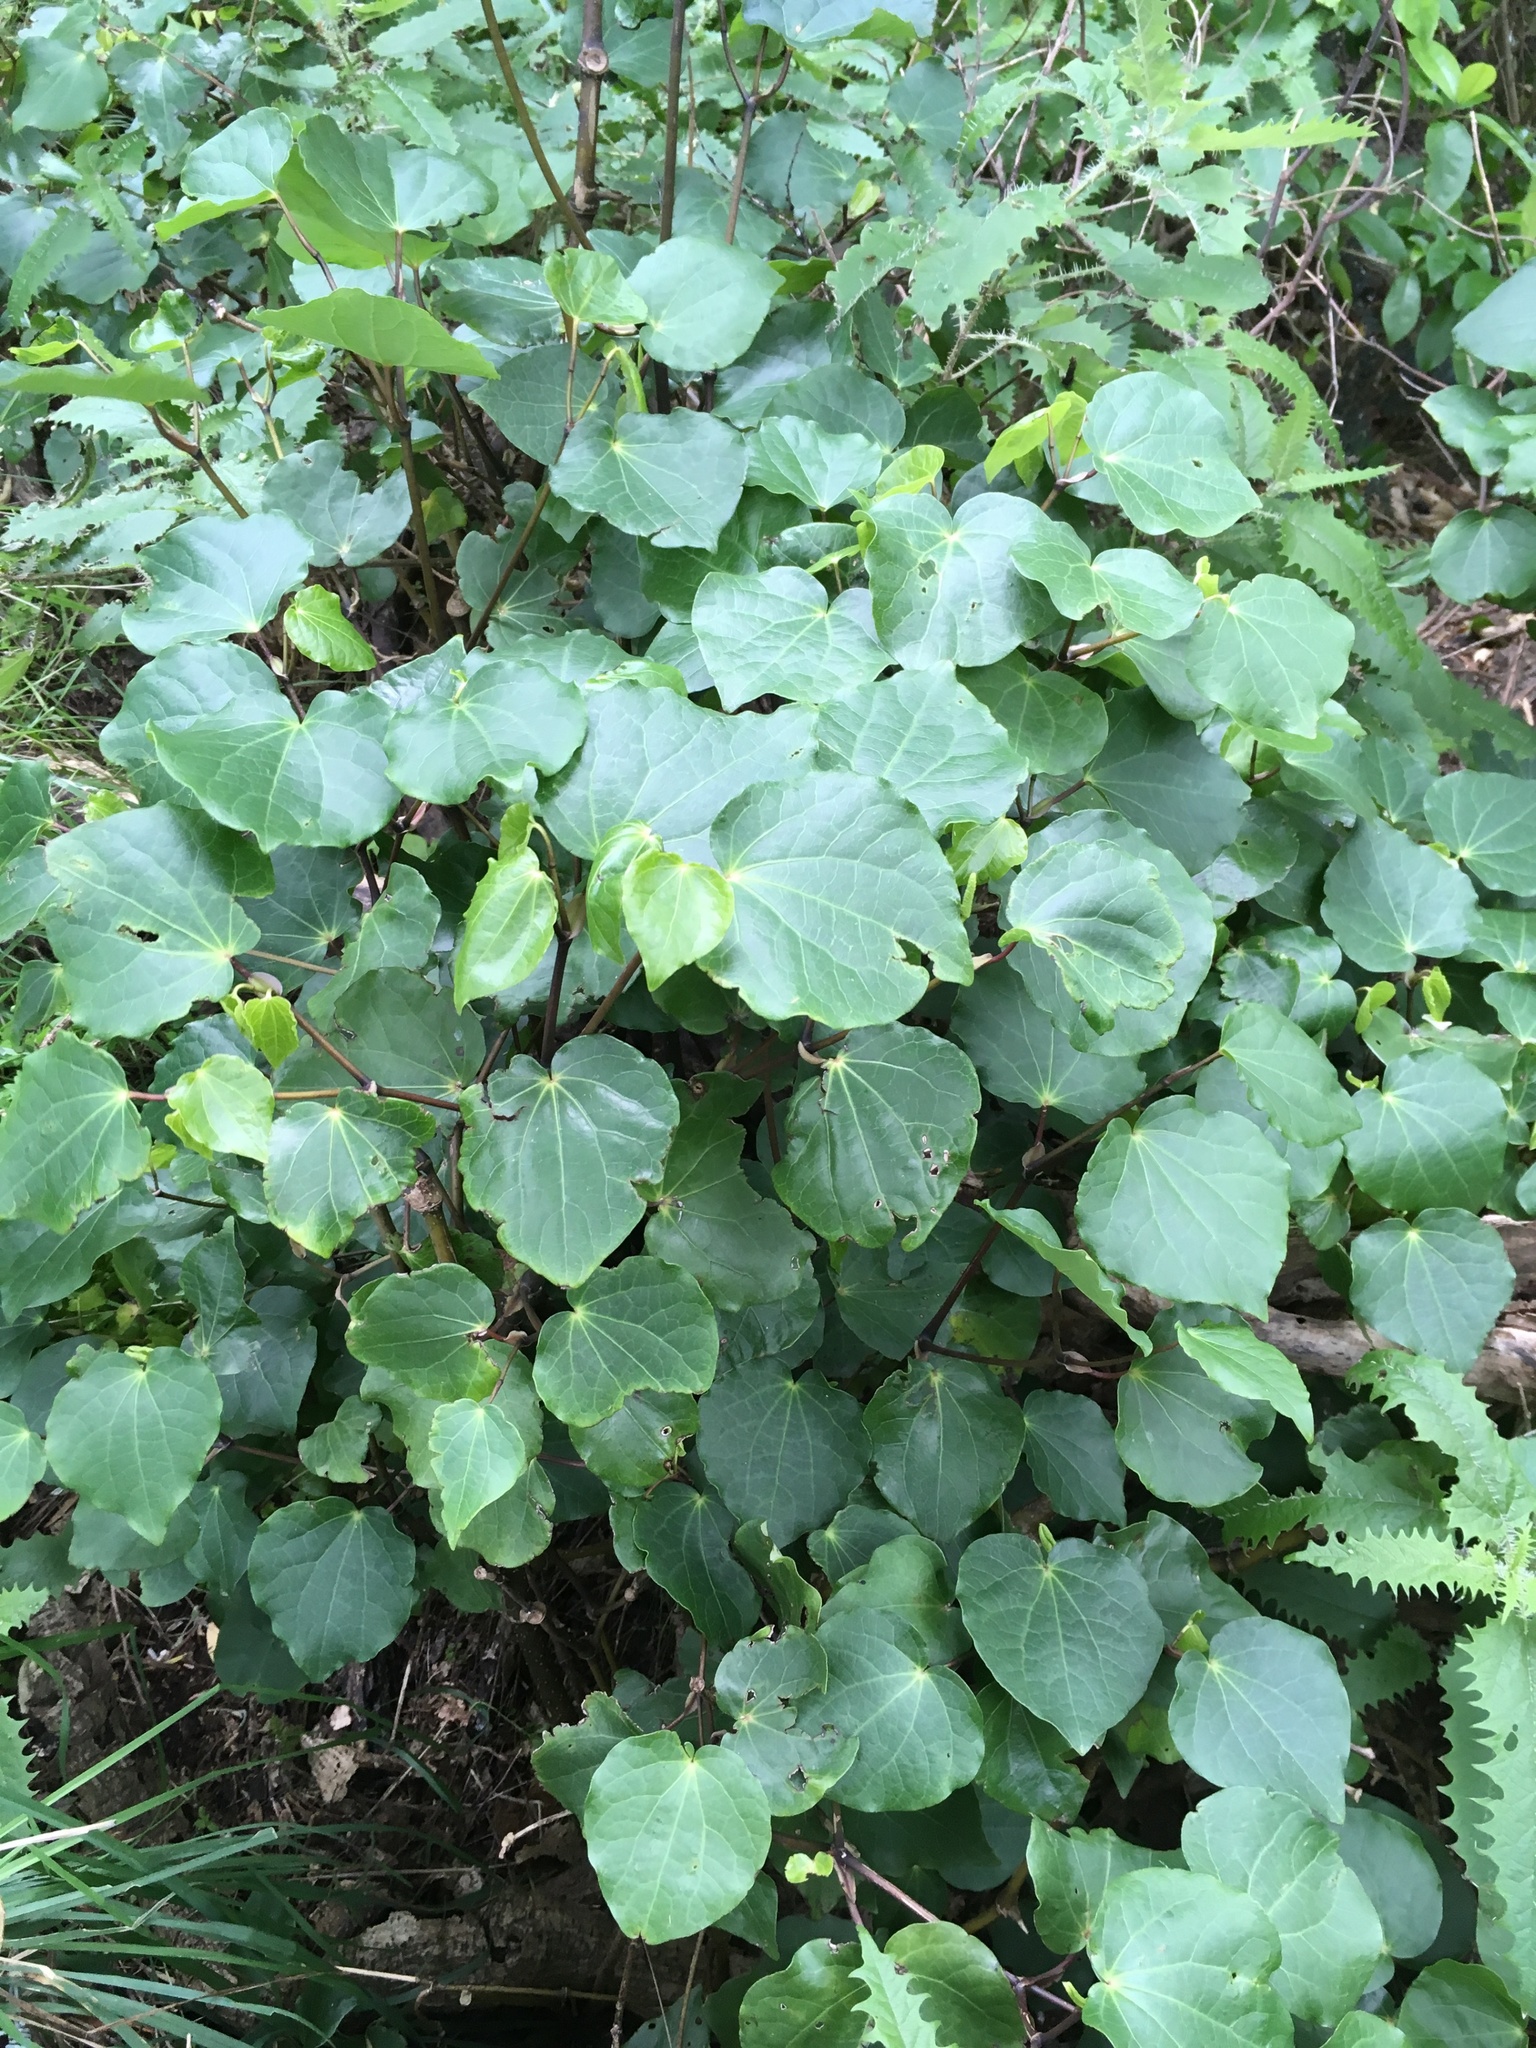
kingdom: Plantae
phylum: Tracheophyta
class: Magnoliopsida
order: Piperales
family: Piperaceae
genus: Macropiper
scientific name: Macropiper excelsum
